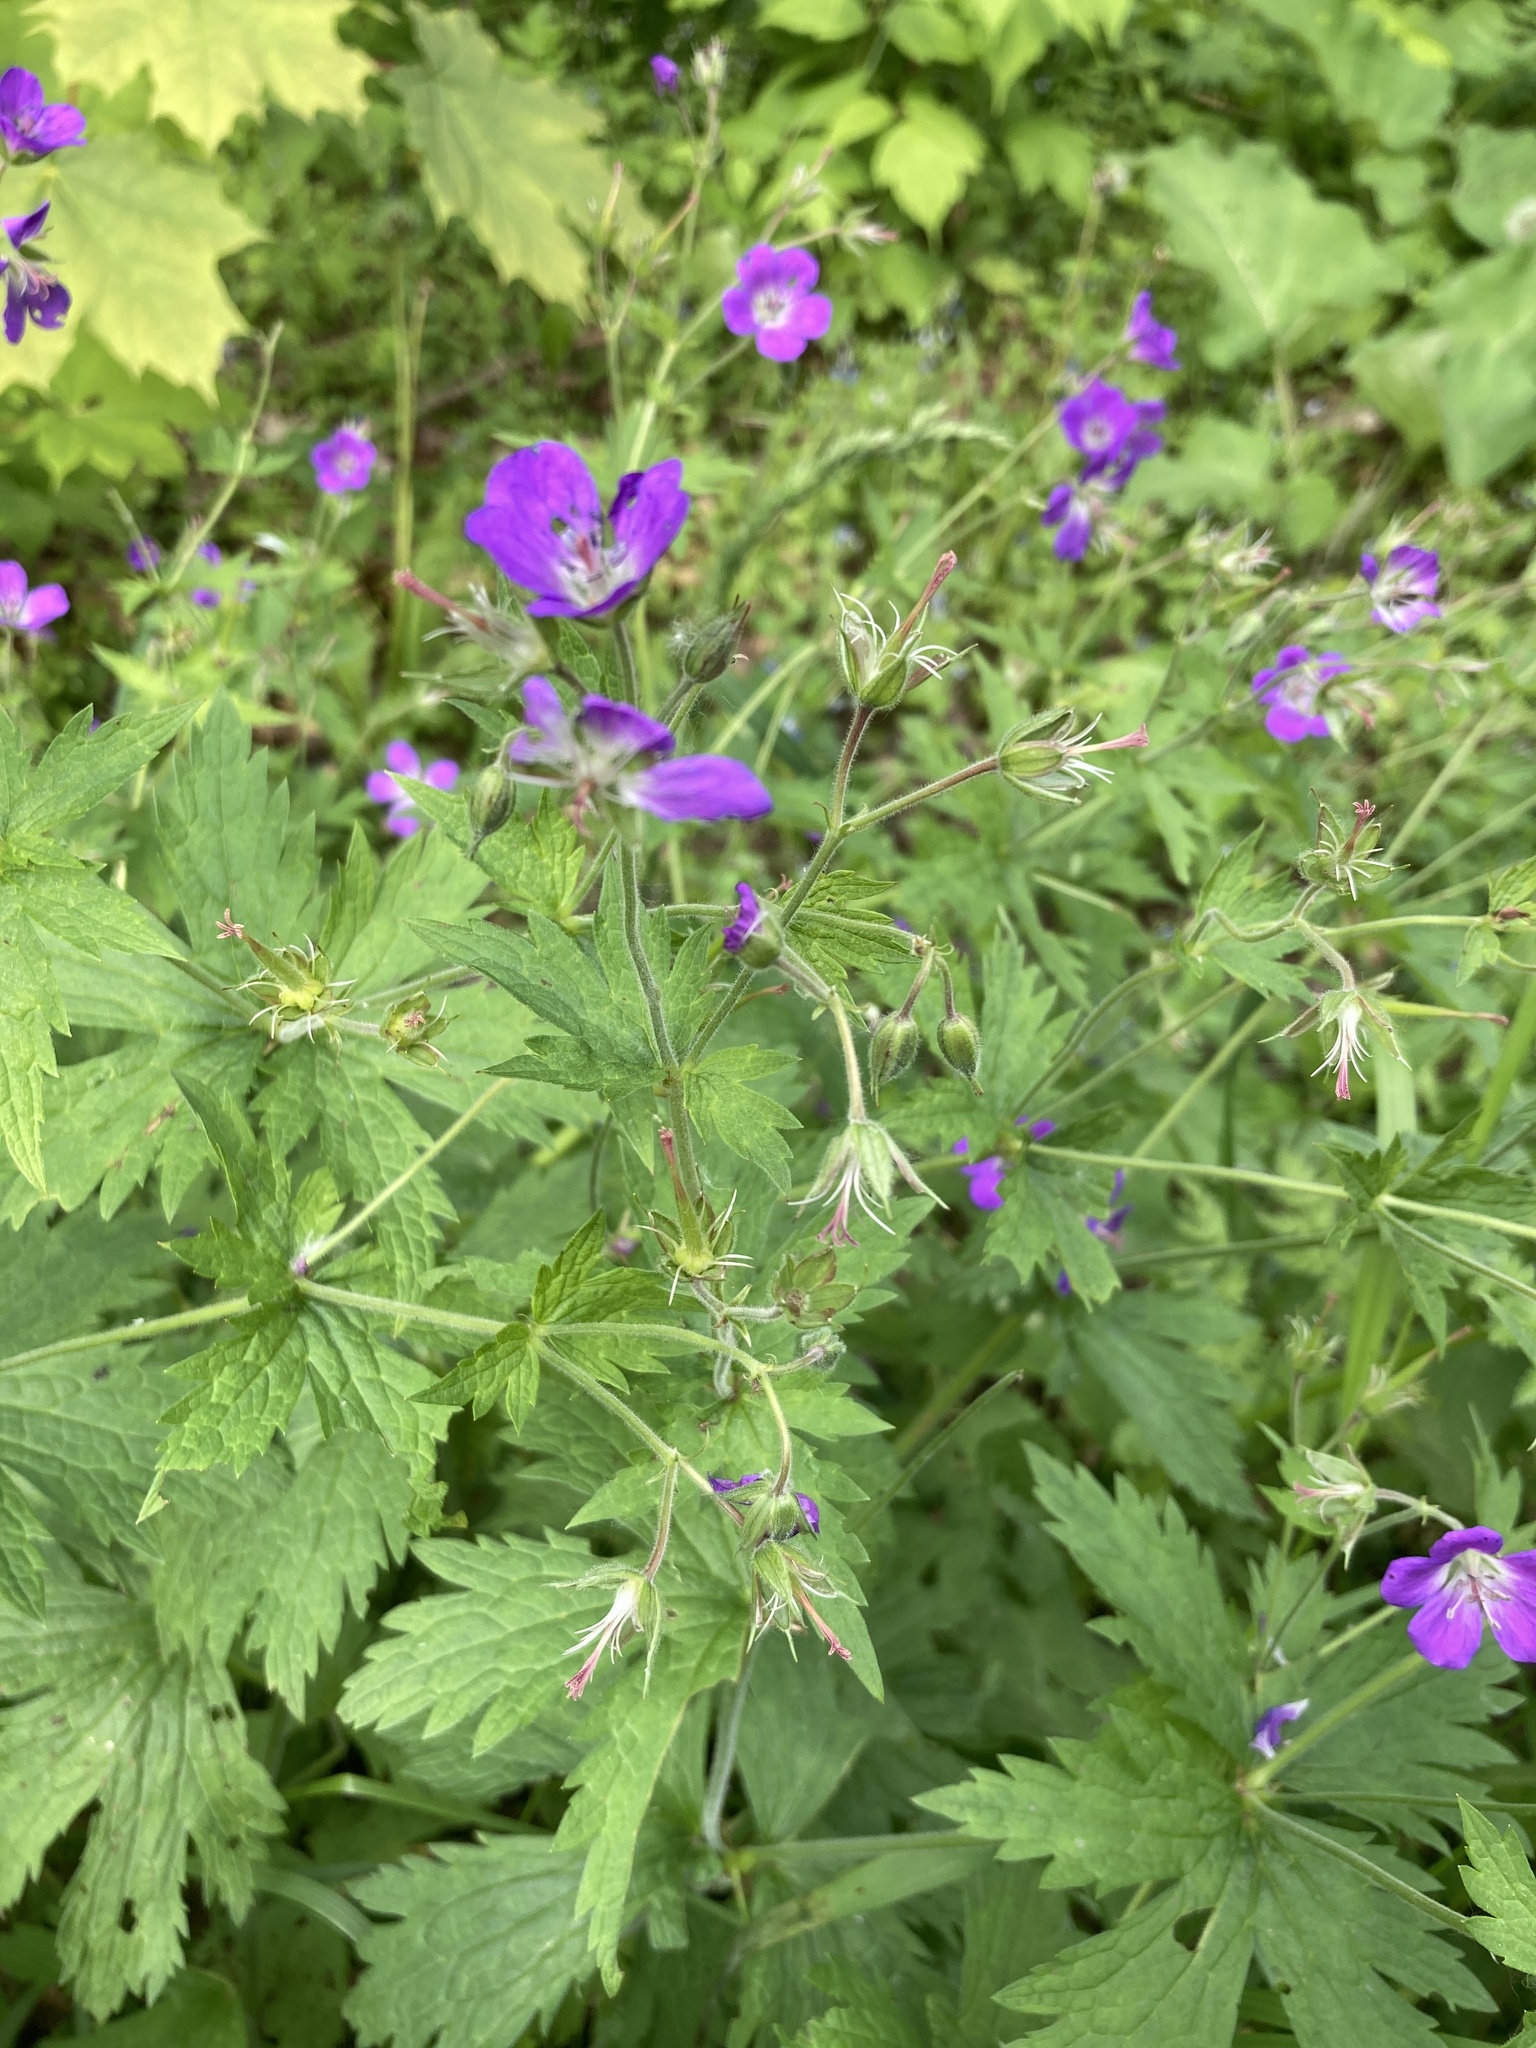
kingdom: Plantae
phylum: Tracheophyta
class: Magnoliopsida
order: Geraniales
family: Geraniaceae
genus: Geranium
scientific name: Geranium sylvaticum
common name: Wood crane's-bill
